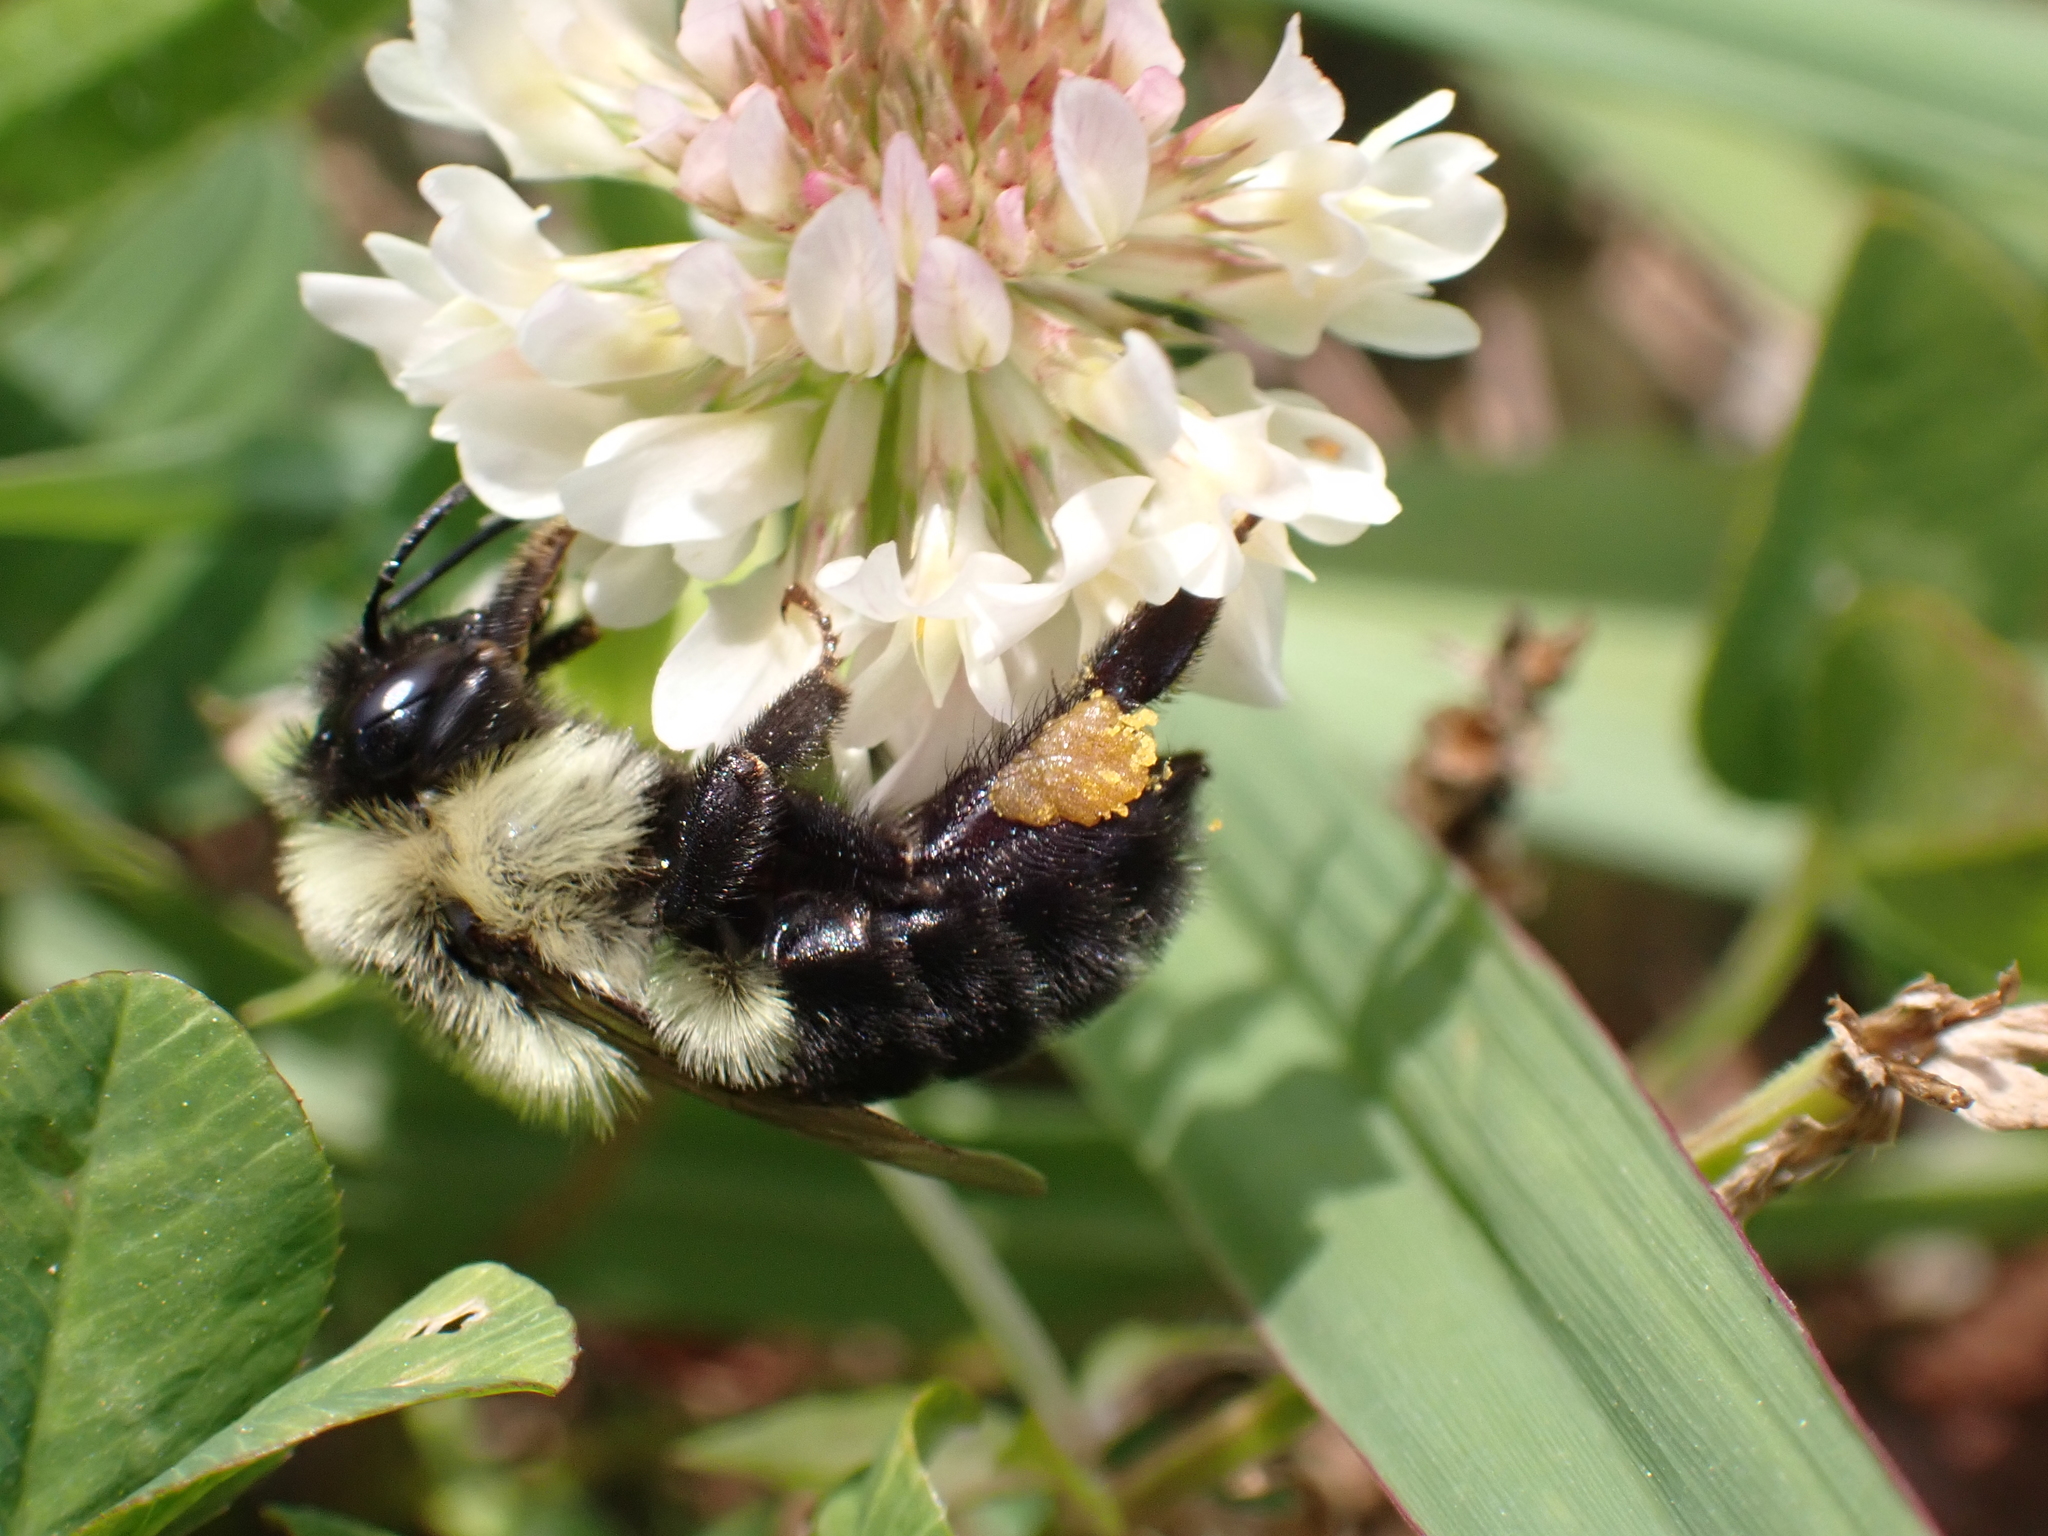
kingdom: Animalia
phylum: Arthropoda
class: Insecta
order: Hymenoptera
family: Apidae
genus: Bombus
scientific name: Bombus impatiens
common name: Common eastern bumble bee
